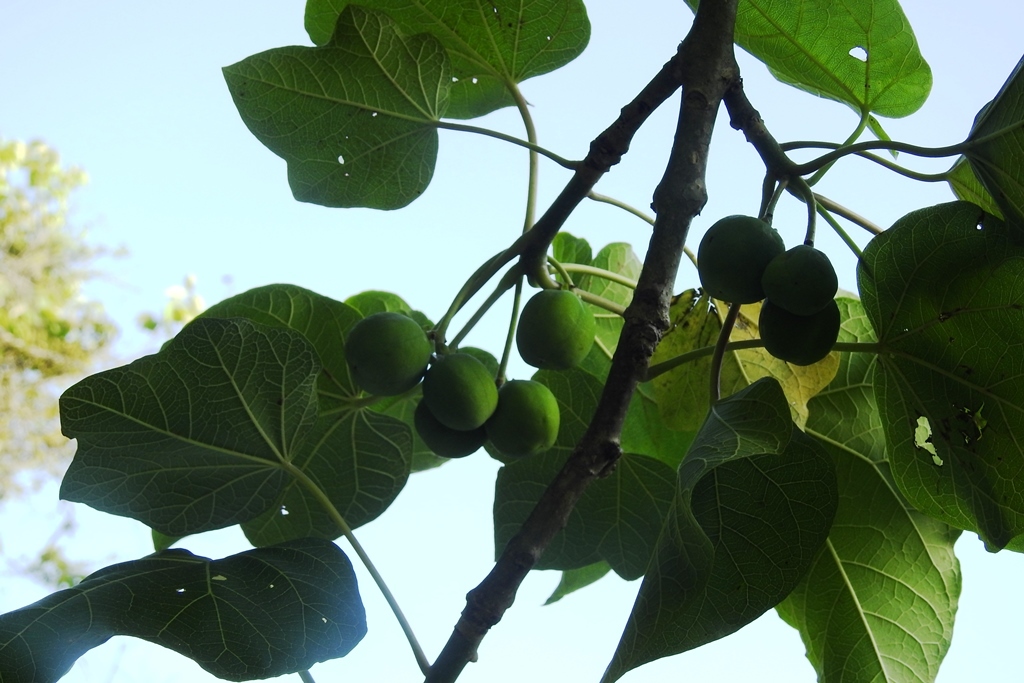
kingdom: Plantae
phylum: Tracheophyta
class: Magnoliopsida
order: Malpighiales
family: Euphorbiaceae
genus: Jatropha
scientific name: Jatropha curcas
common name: Barbados nut
